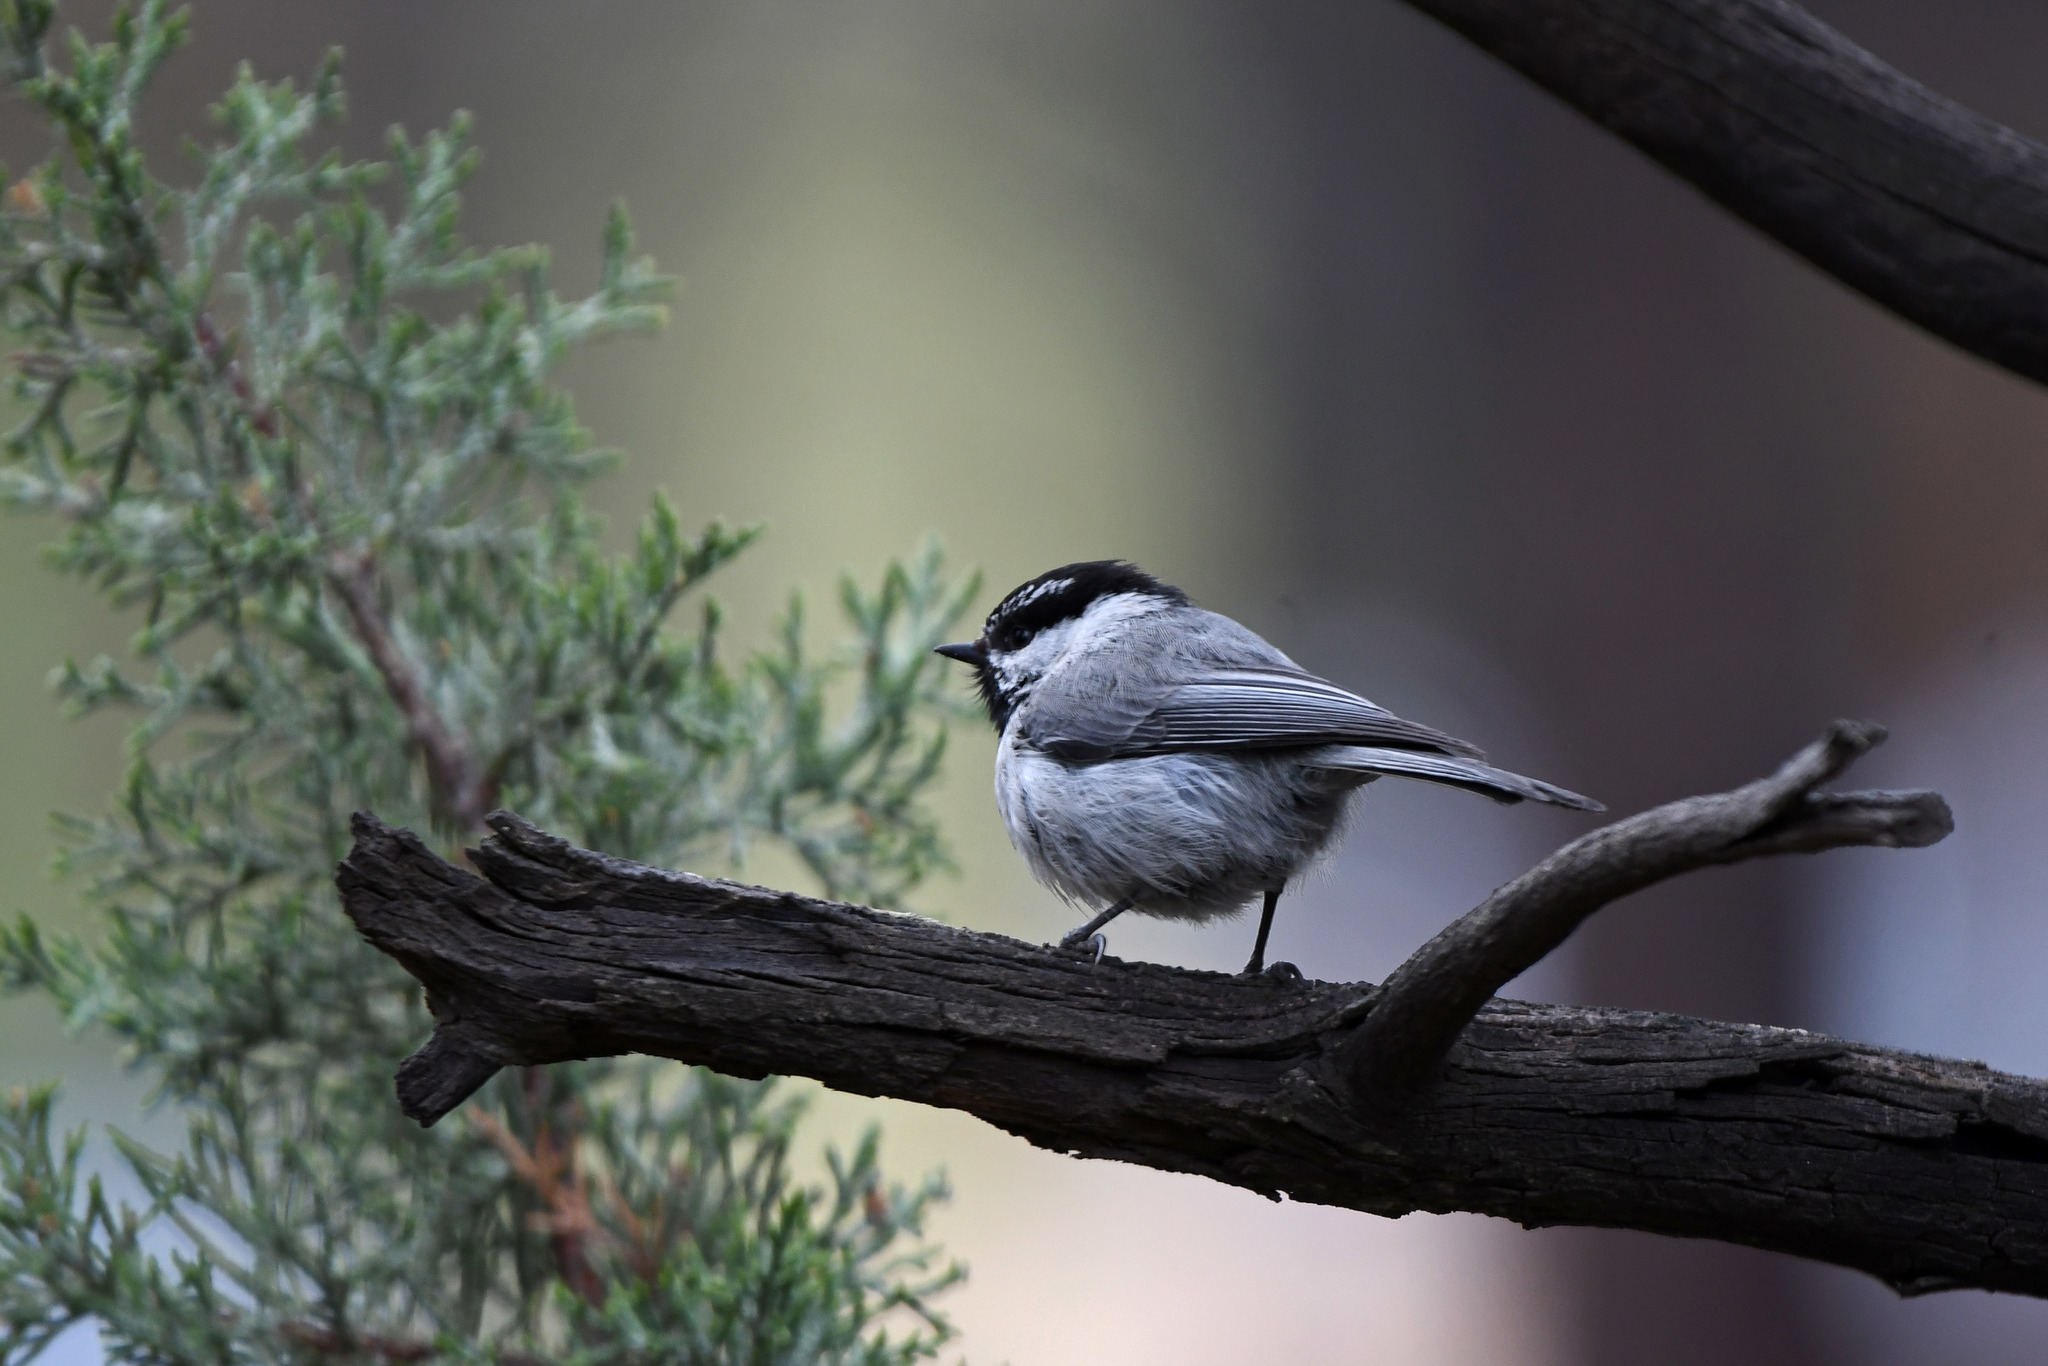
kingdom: Animalia
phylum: Chordata
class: Aves
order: Passeriformes
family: Paridae
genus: Poecile
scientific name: Poecile gambeli
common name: Mountain chickadee
